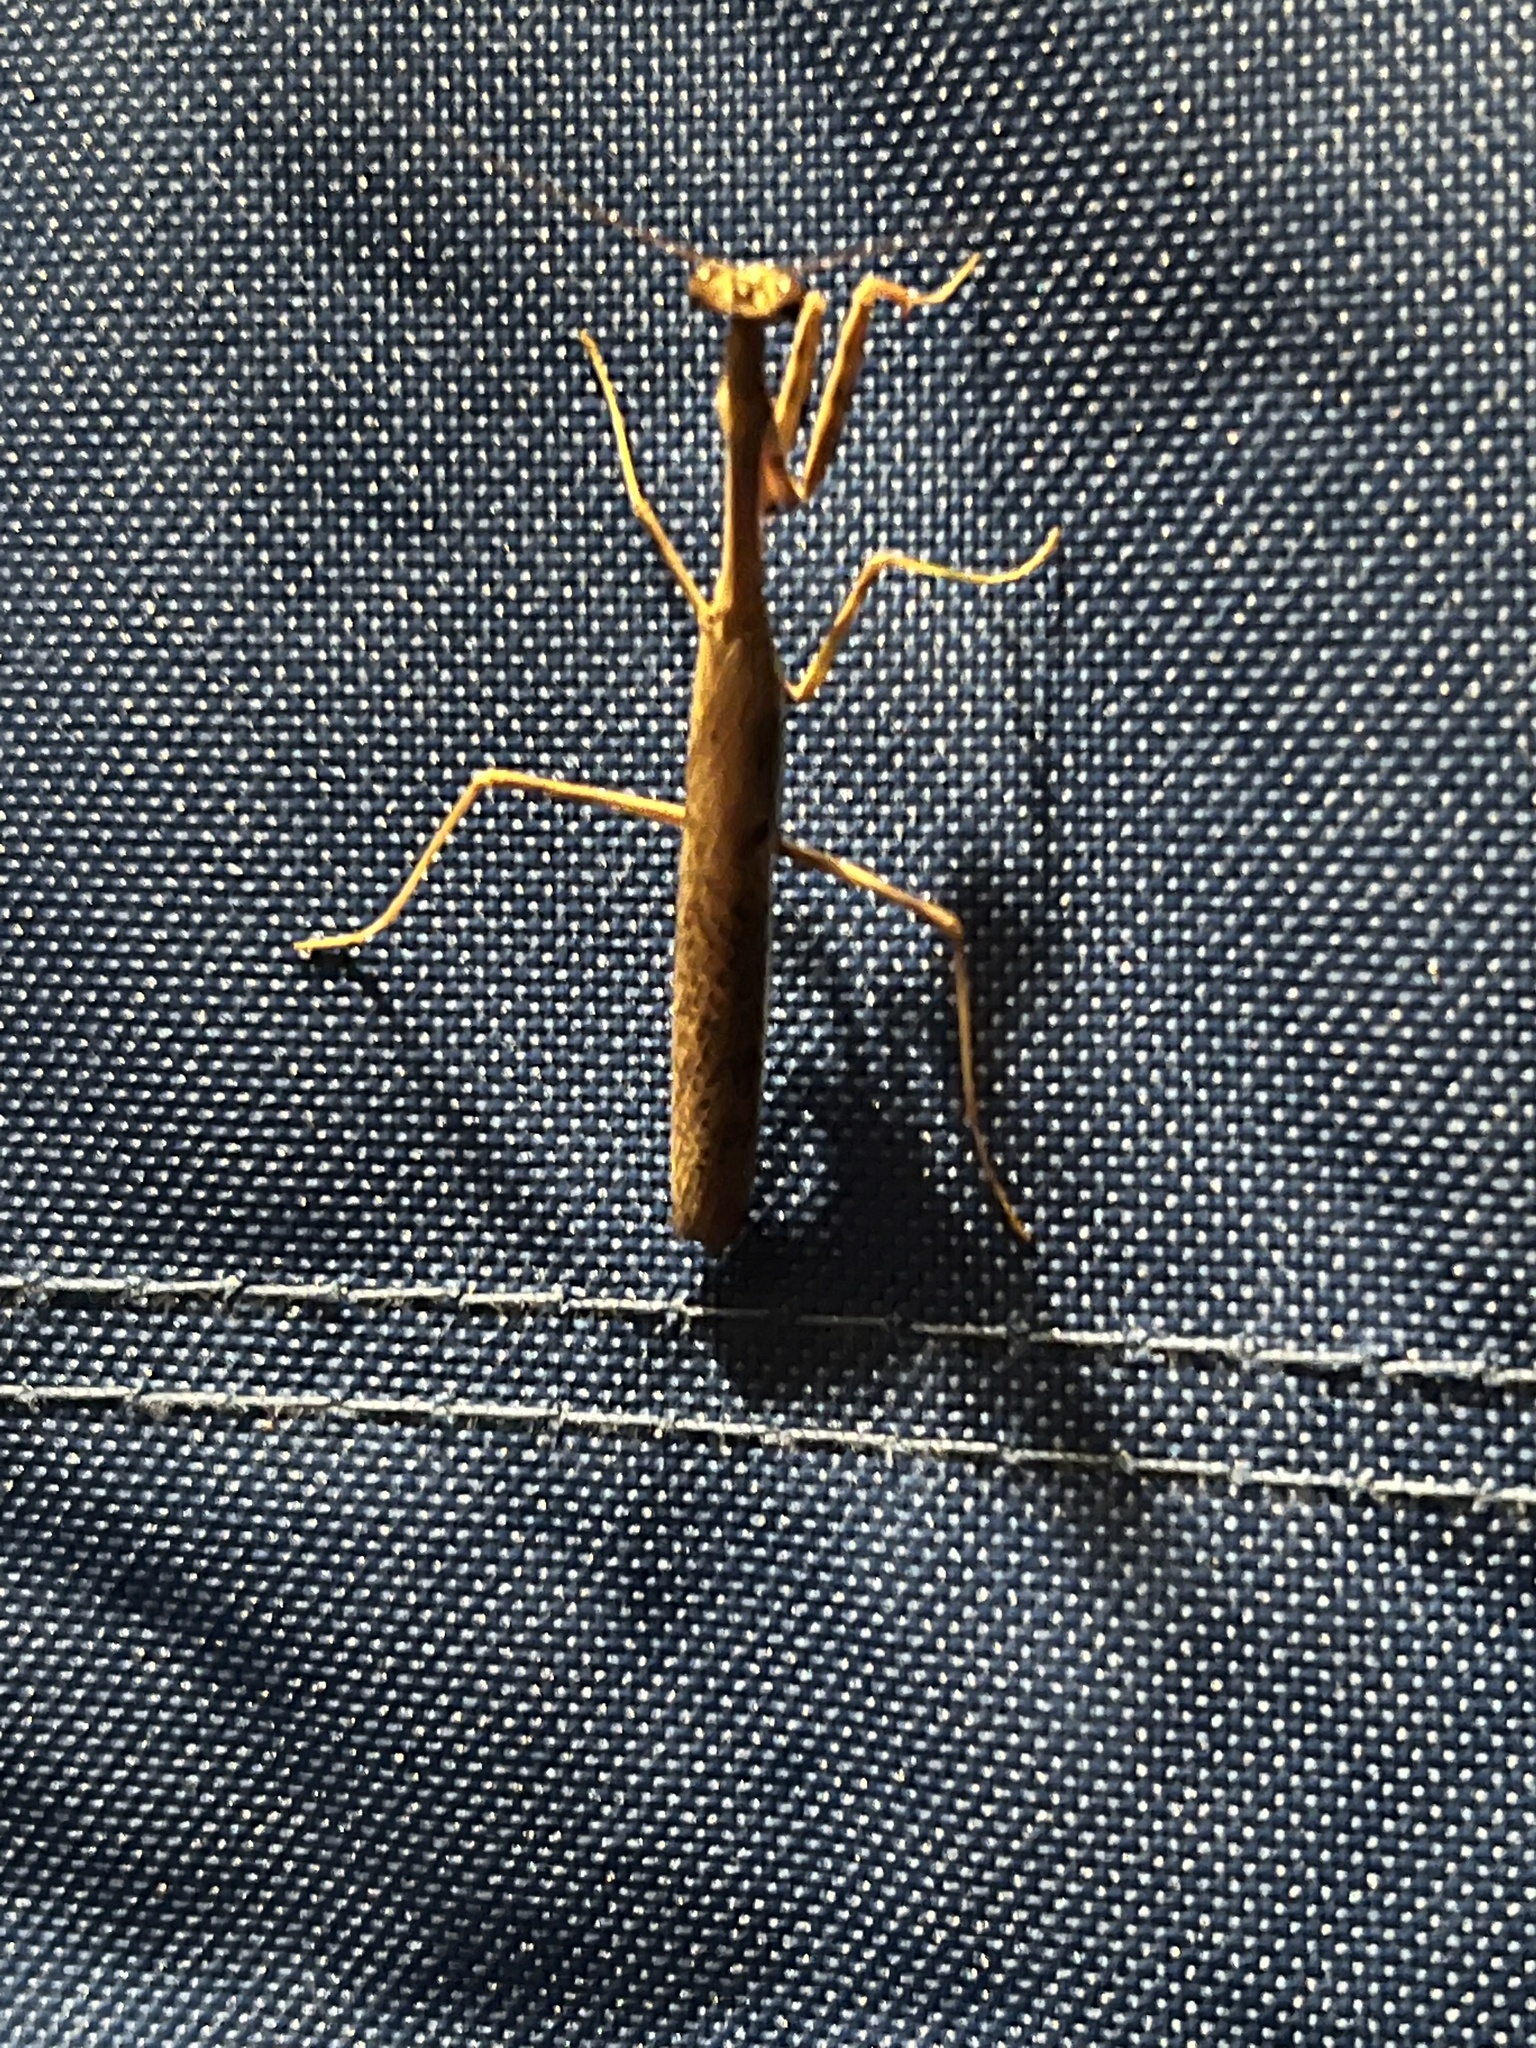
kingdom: Animalia
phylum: Arthropoda
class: Insecta
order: Mantodea
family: Mantidae
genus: Stagmomantis
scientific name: Stagmomantis carolina
